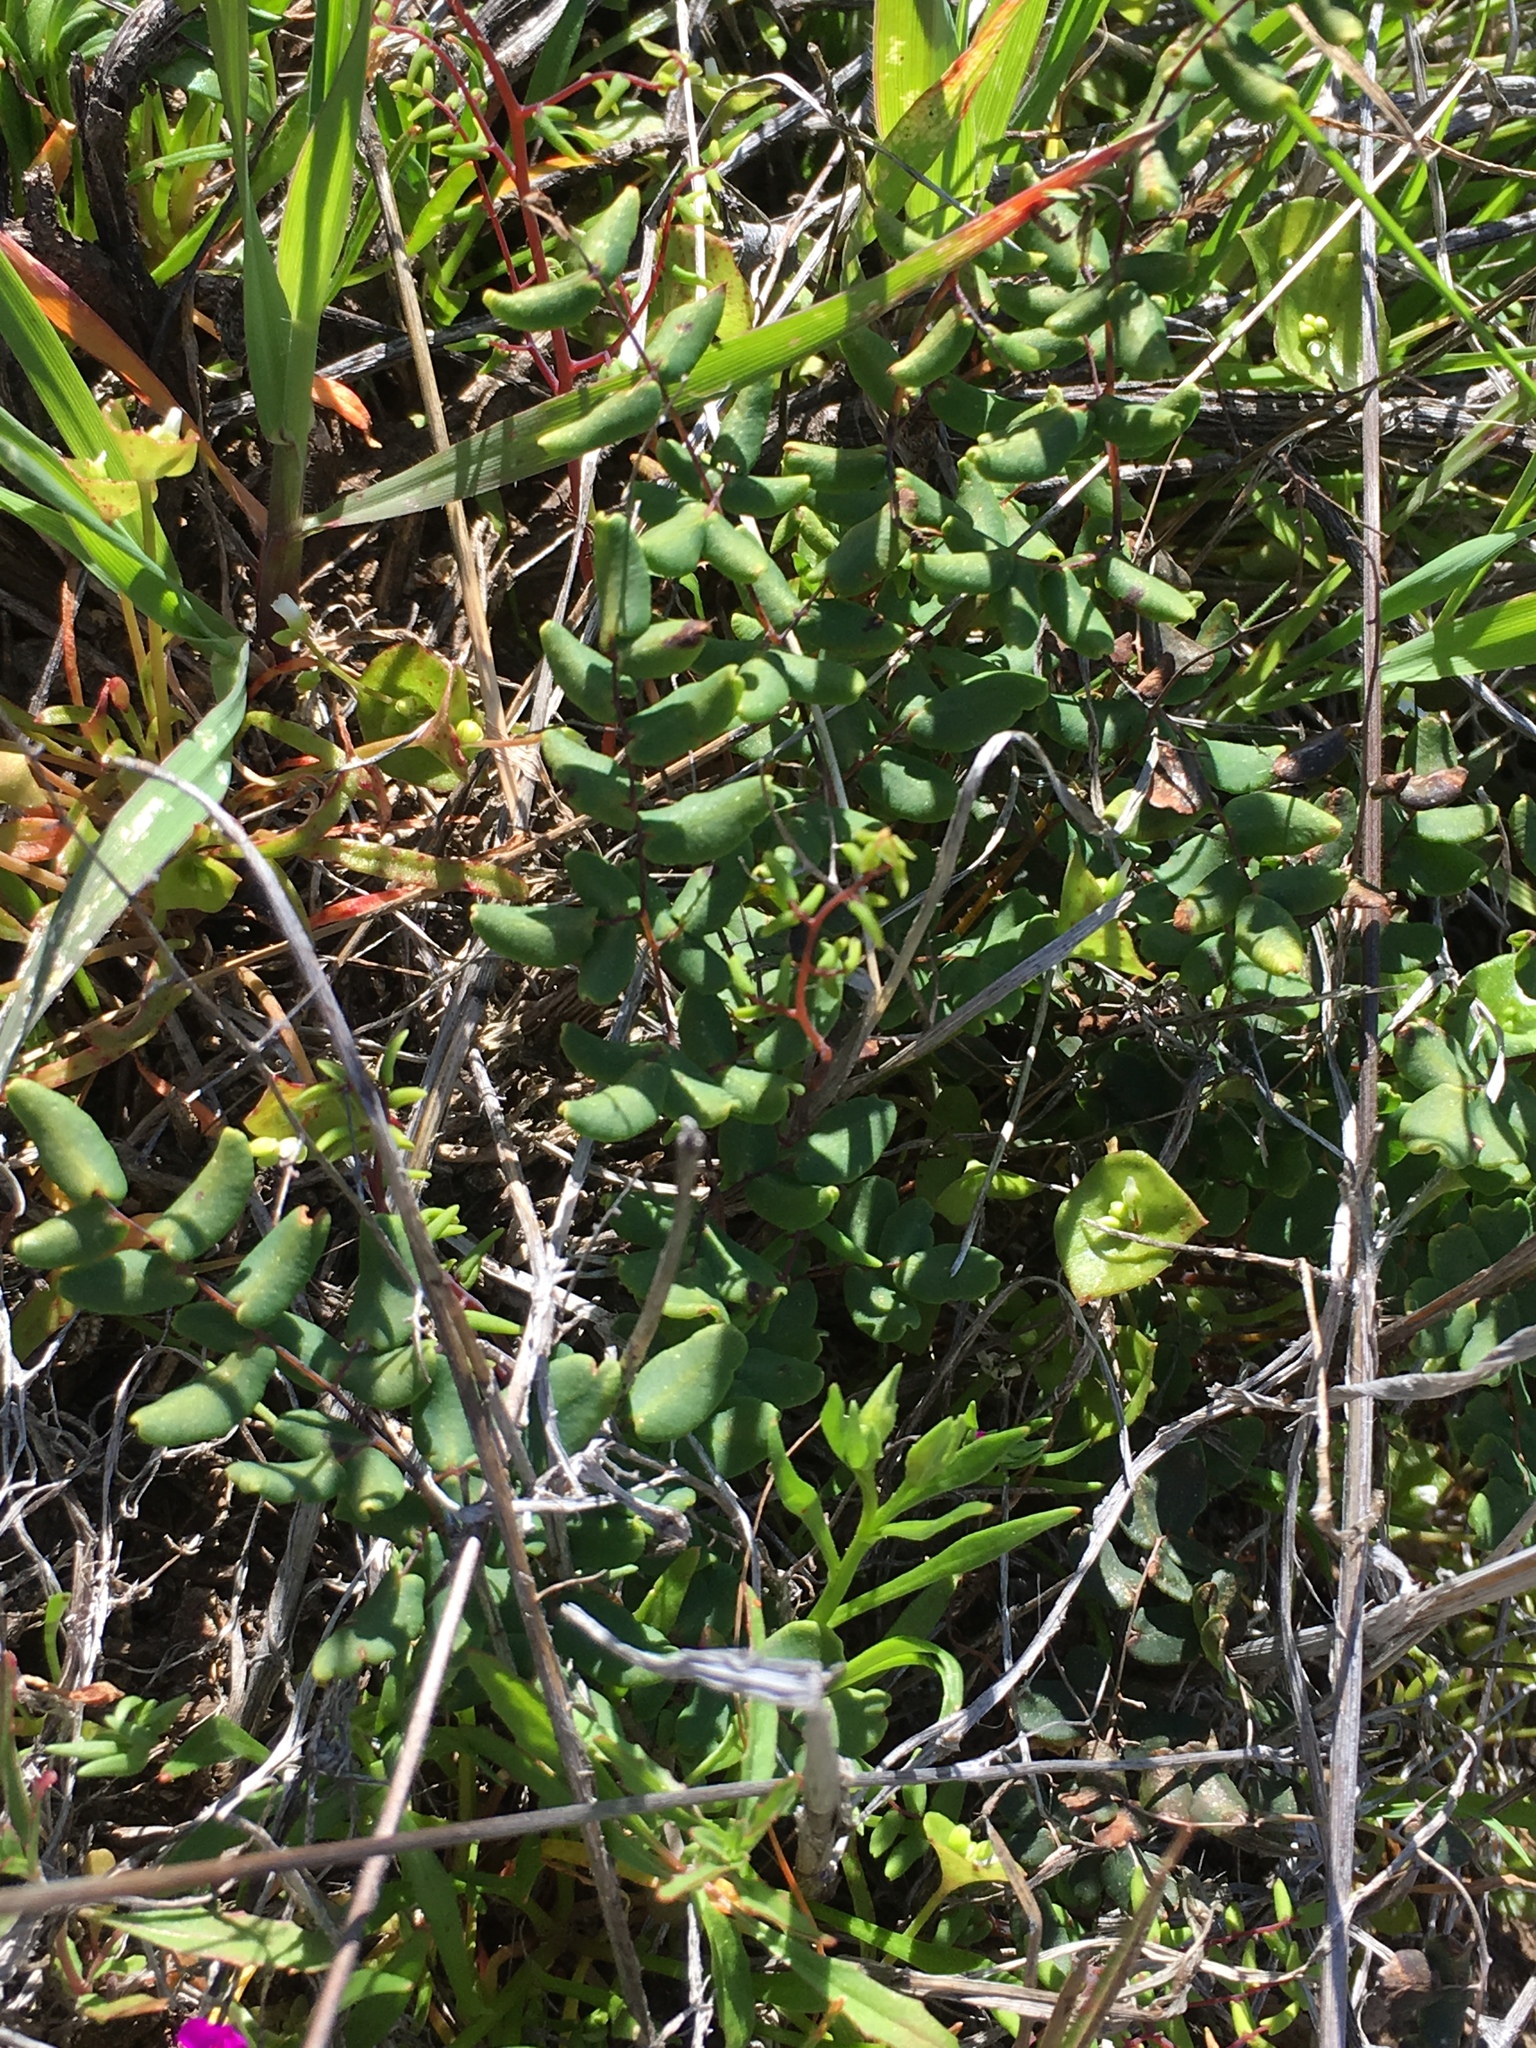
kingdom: Plantae
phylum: Tracheophyta
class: Polypodiopsida
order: Polypodiales
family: Pteridaceae
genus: Pellaea
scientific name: Pellaea andromedifolia
